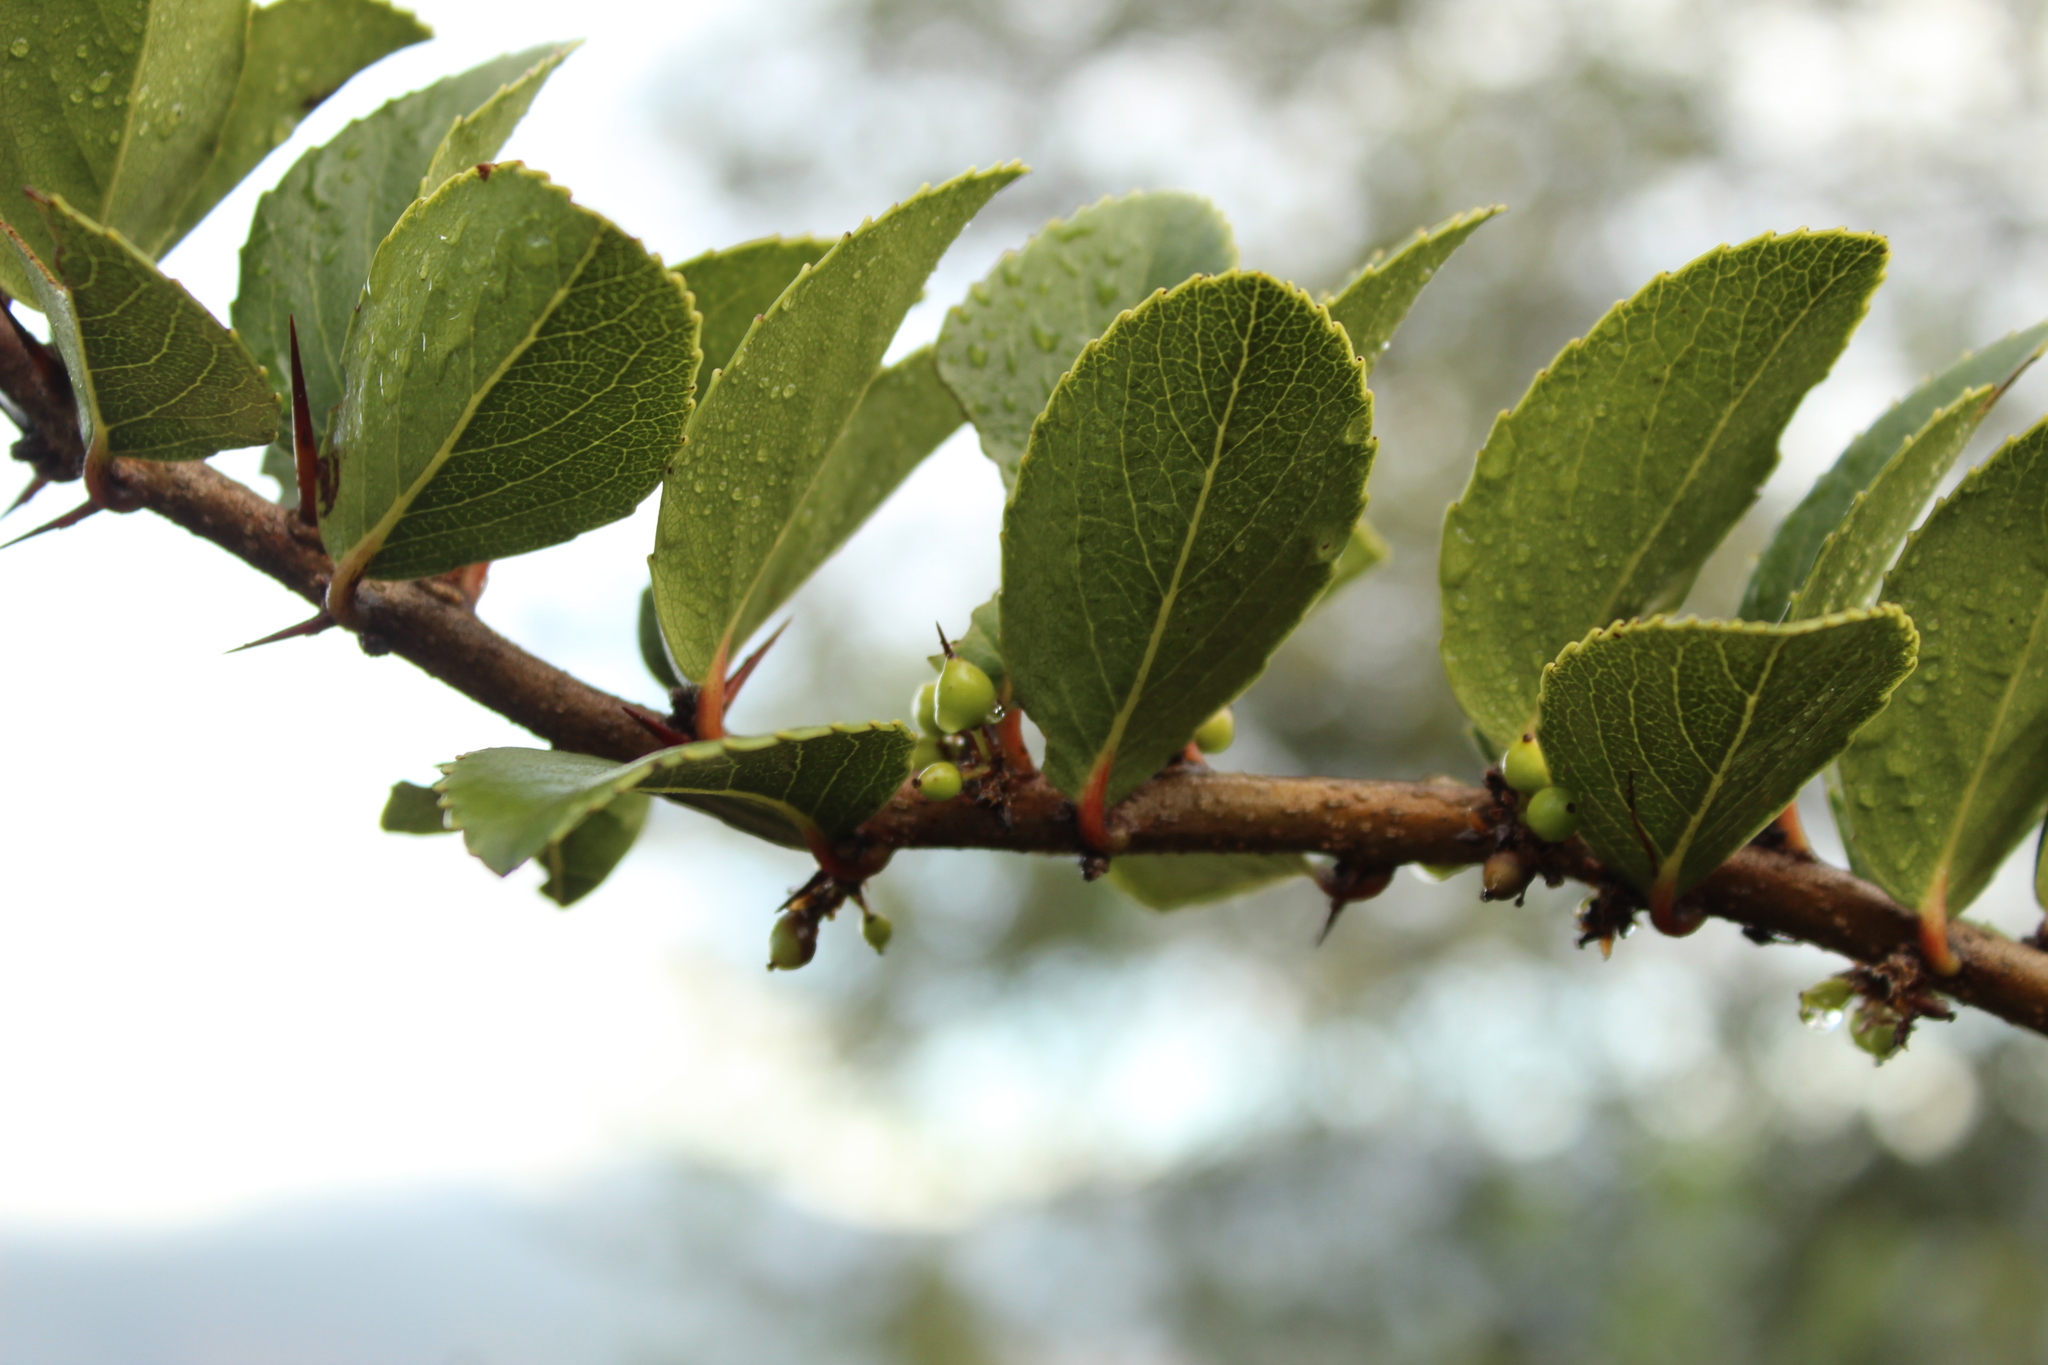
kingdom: Plantae
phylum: Tracheophyta
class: Magnoliopsida
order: Malpighiales
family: Salicaceae
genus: Xylosma
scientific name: Xylosma spiculifera
